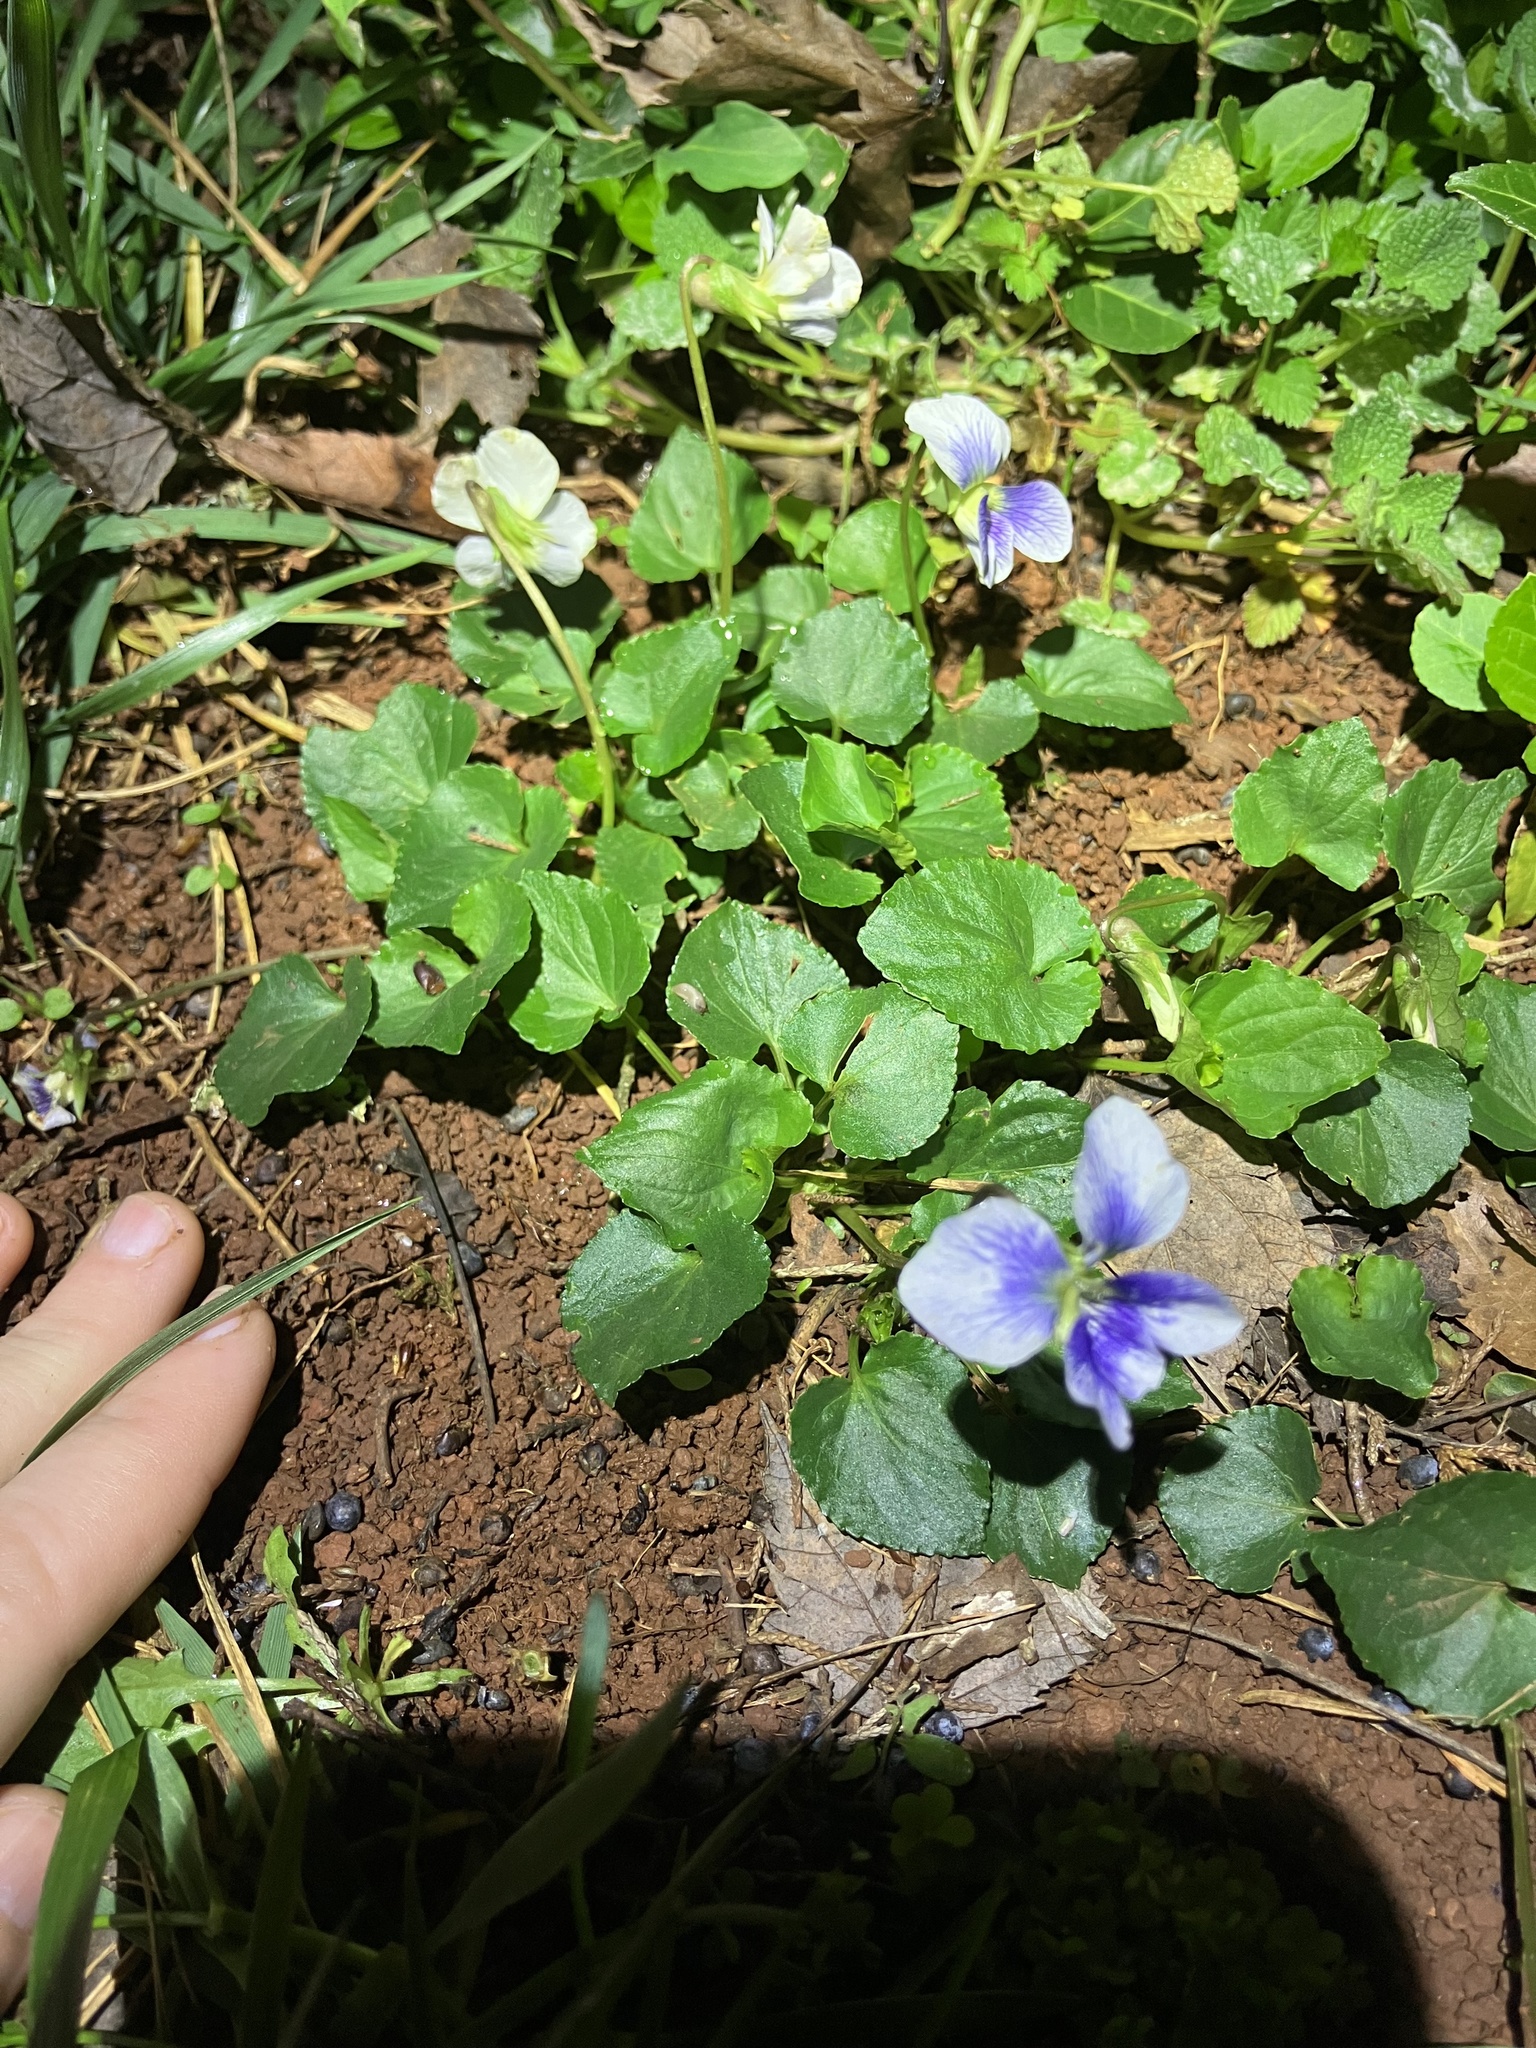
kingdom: Plantae
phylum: Tracheophyta
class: Magnoliopsida
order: Malpighiales
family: Violaceae
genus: Viola
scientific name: Viola cucullata
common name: Marsh blue violet
